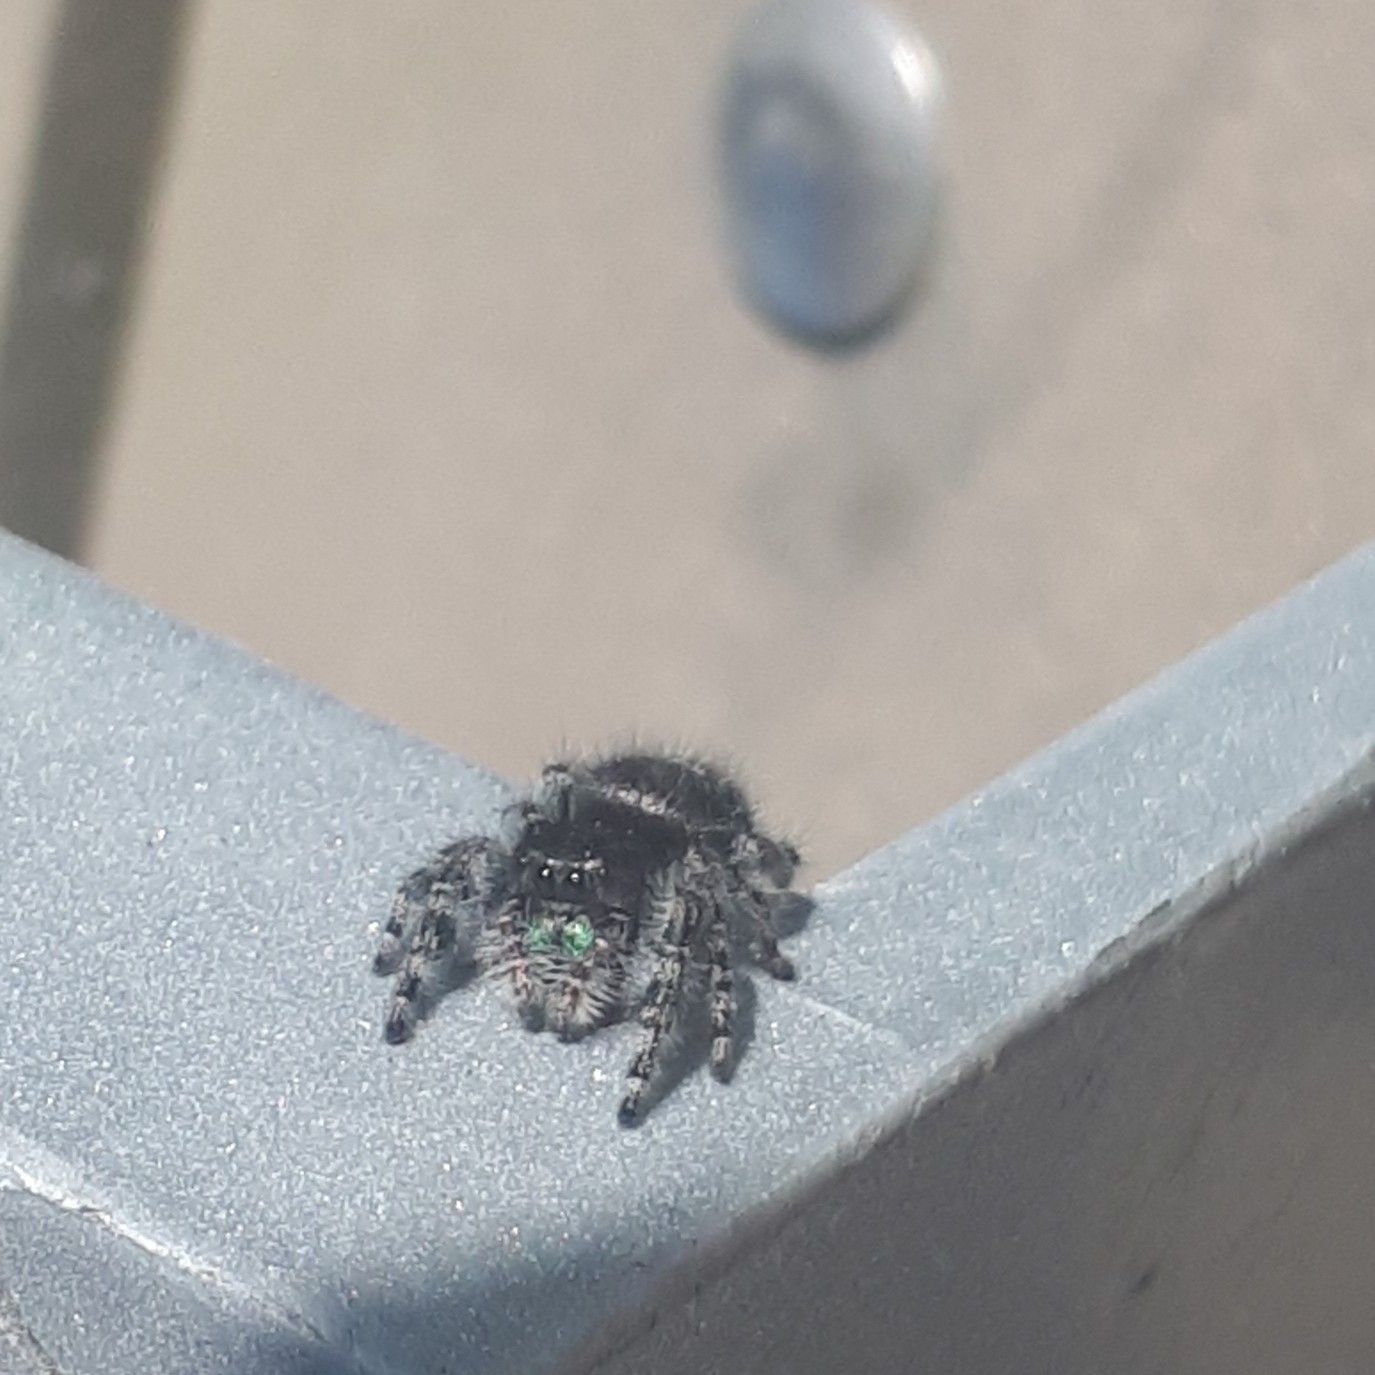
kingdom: Animalia
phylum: Arthropoda
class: Arachnida
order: Araneae
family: Salticidae
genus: Phidippus
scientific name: Phidippus audax
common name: Bold jumper
